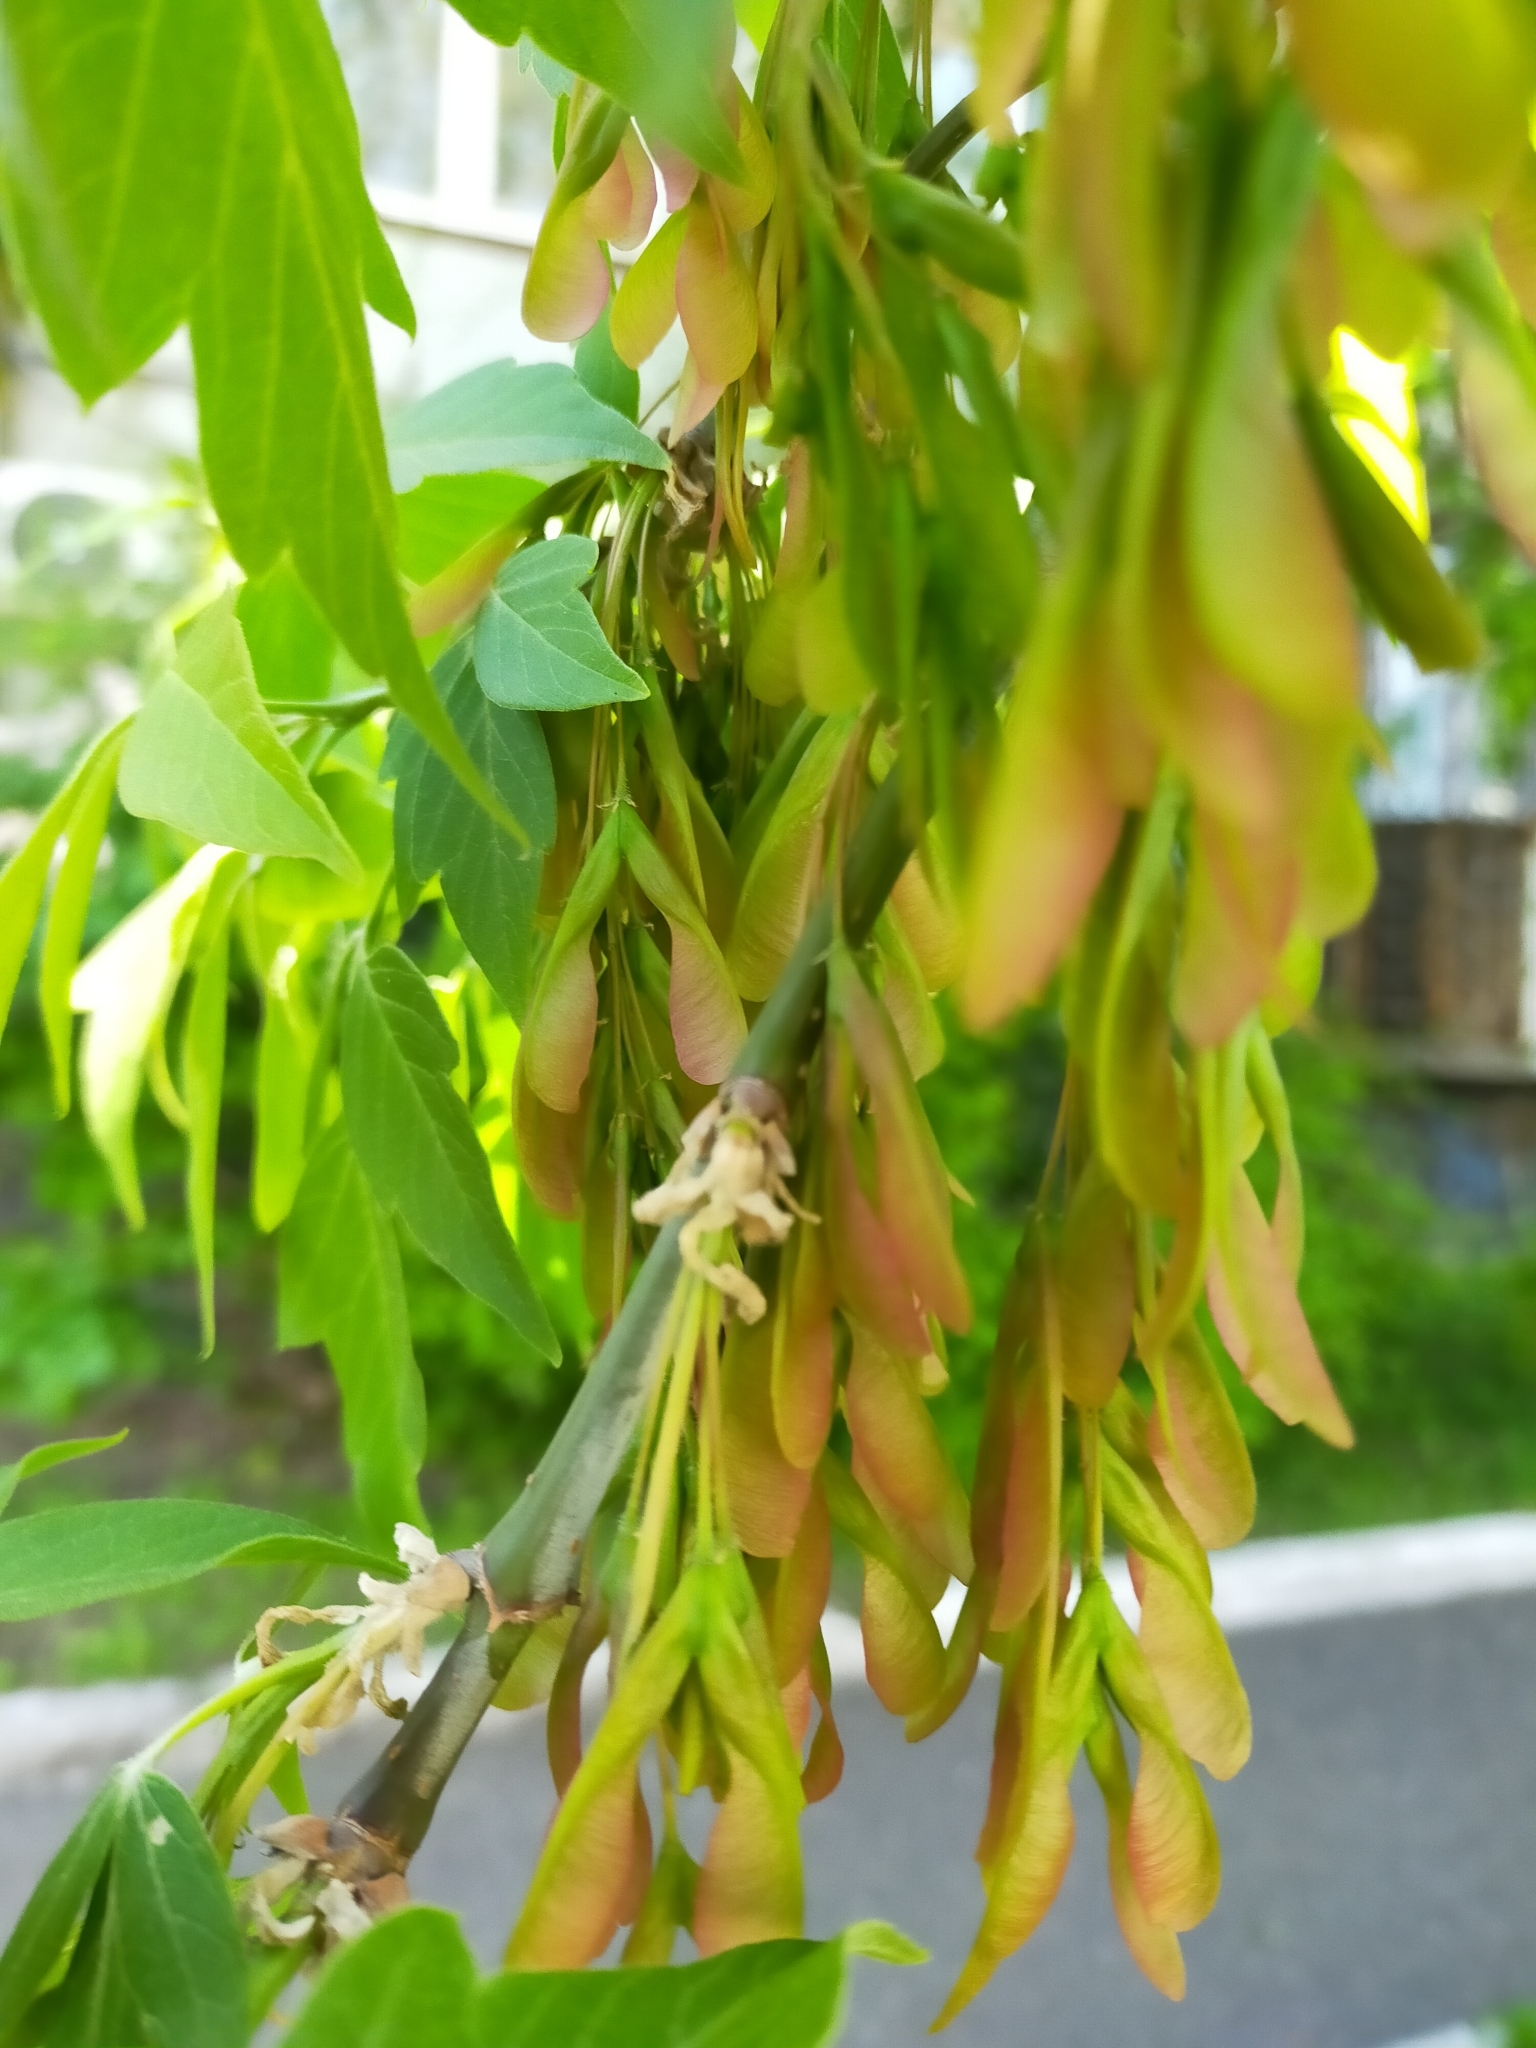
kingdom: Plantae
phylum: Tracheophyta
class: Magnoliopsida
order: Sapindales
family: Sapindaceae
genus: Acer
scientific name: Acer negundo
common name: Ashleaf maple
